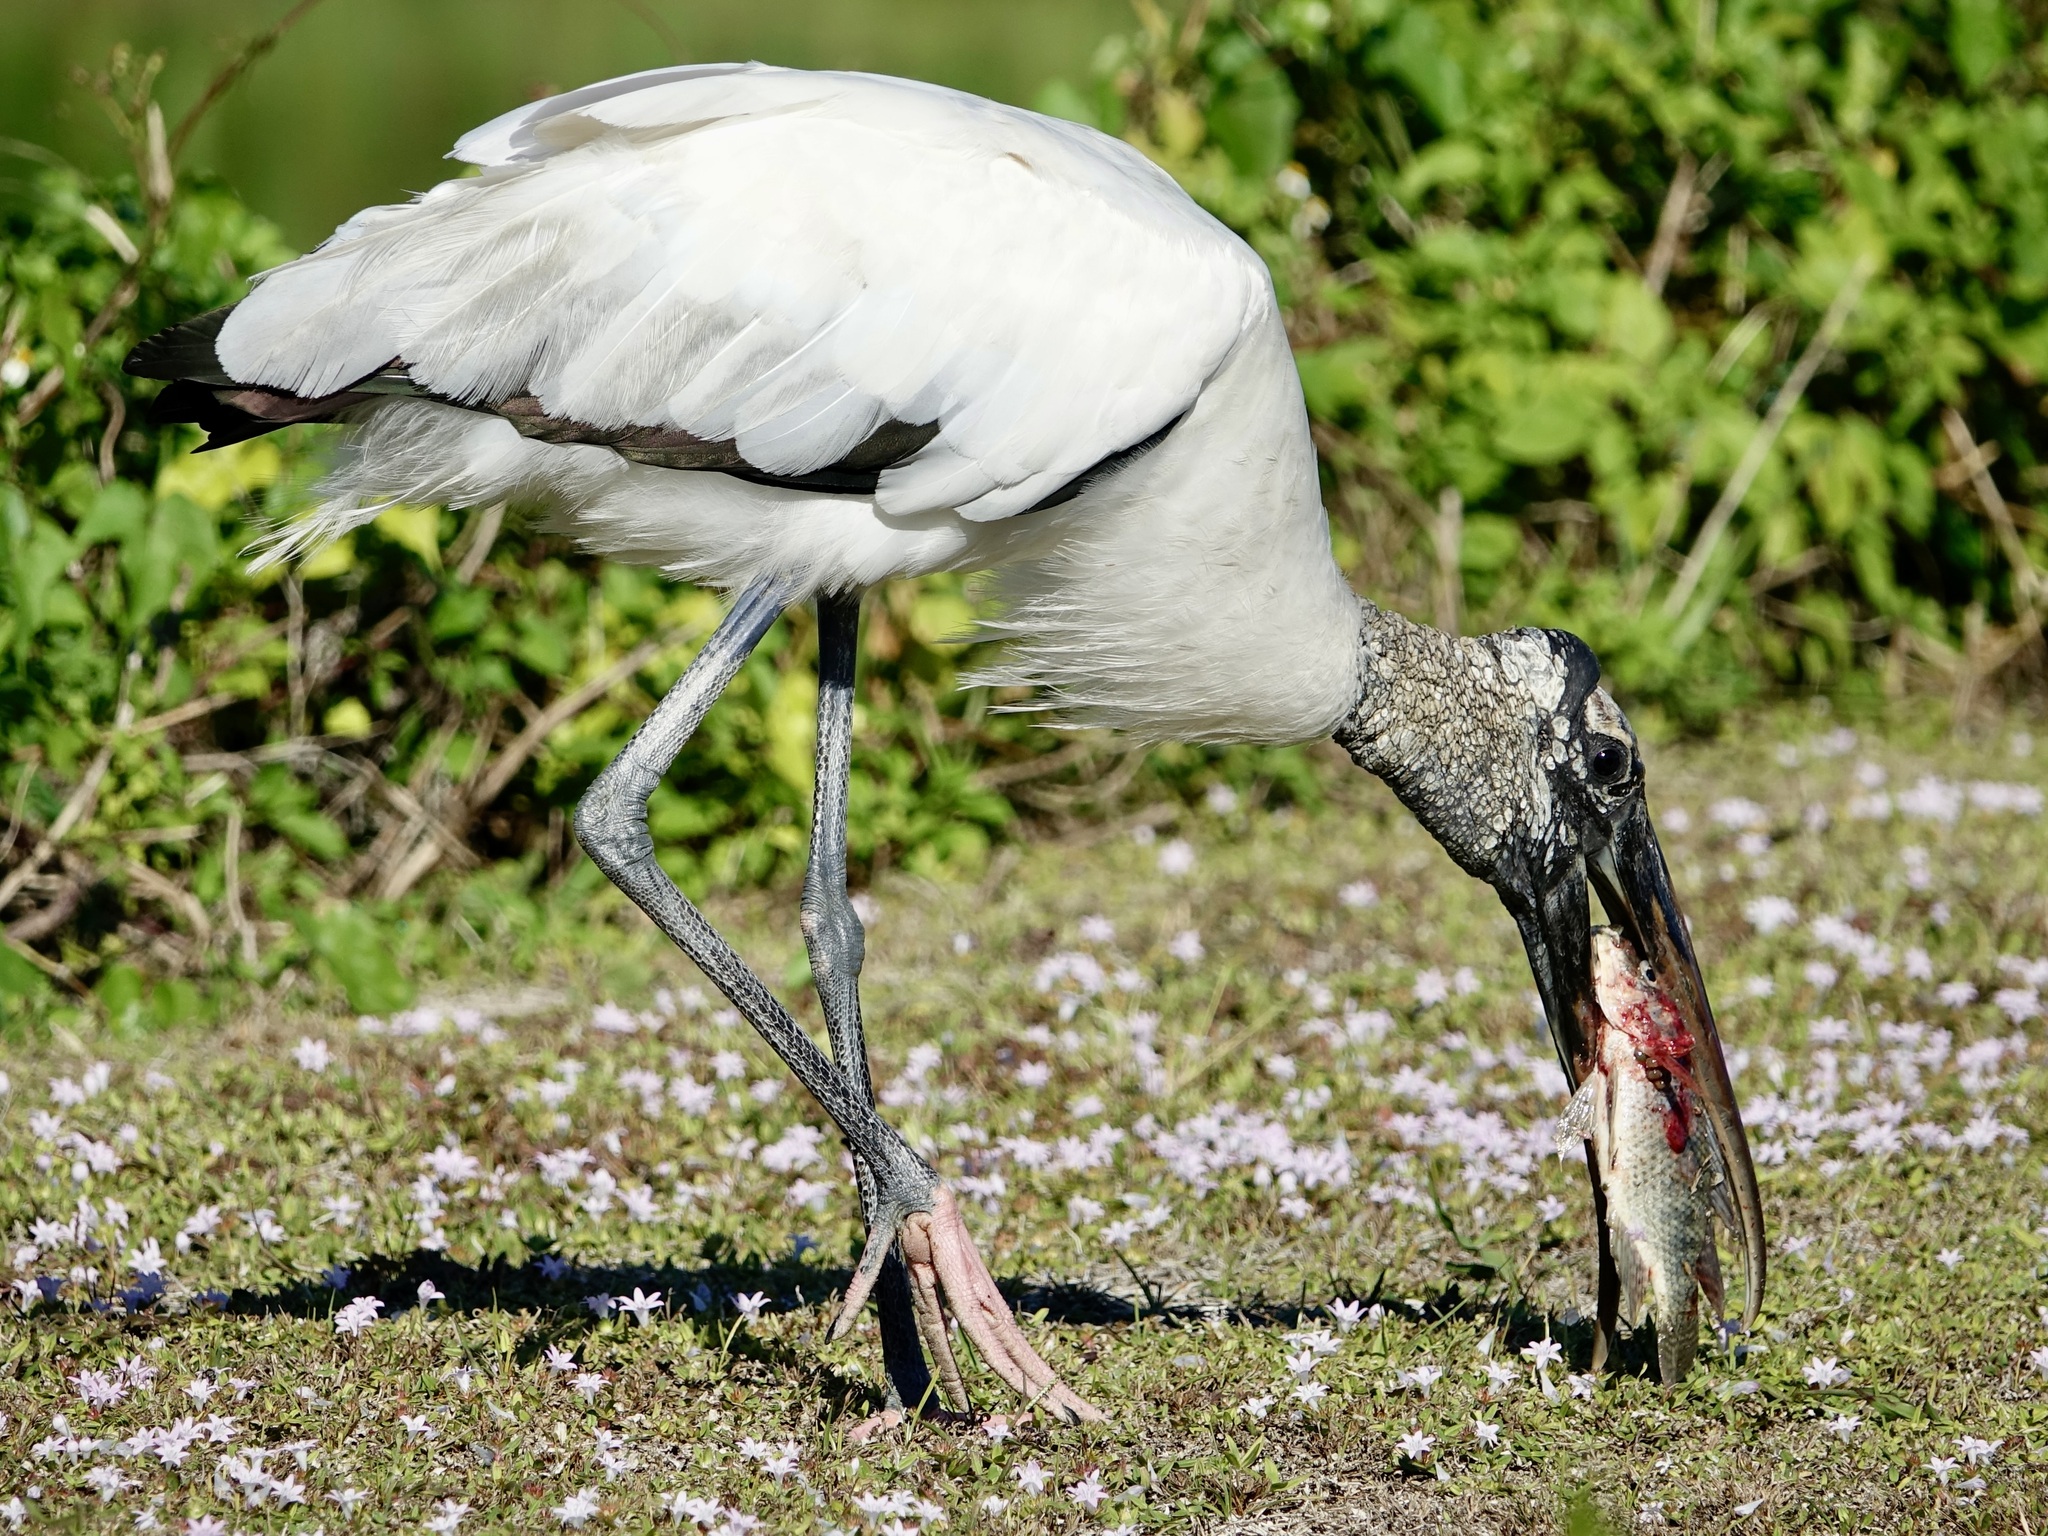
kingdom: Animalia
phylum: Chordata
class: Aves
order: Ciconiiformes
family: Ciconiidae
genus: Mycteria
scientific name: Mycteria americana
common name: Wood stork
